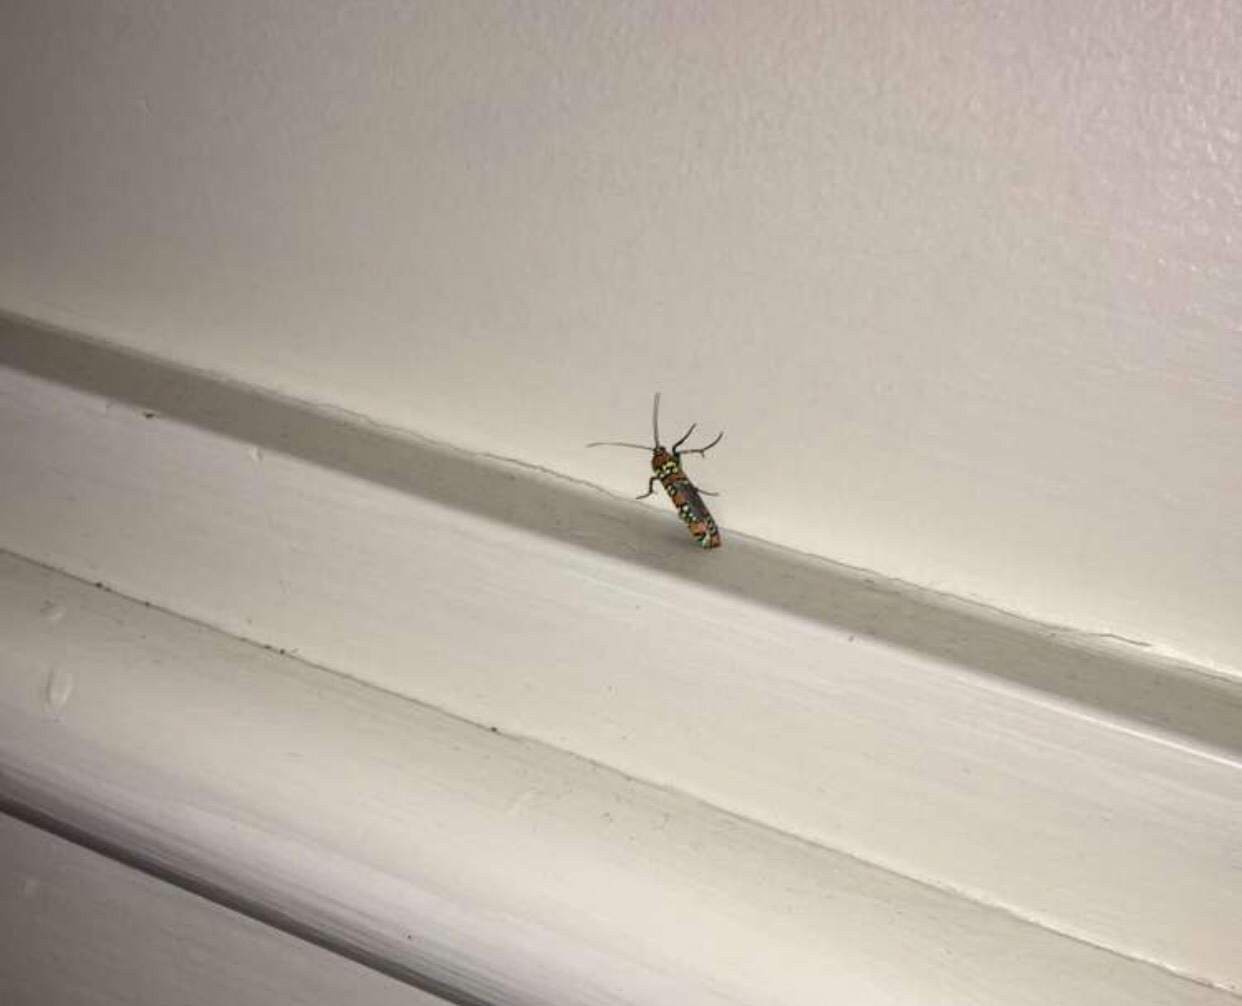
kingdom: Animalia
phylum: Arthropoda
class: Insecta
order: Lepidoptera
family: Attevidae
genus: Atteva
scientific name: Atteva punctella
